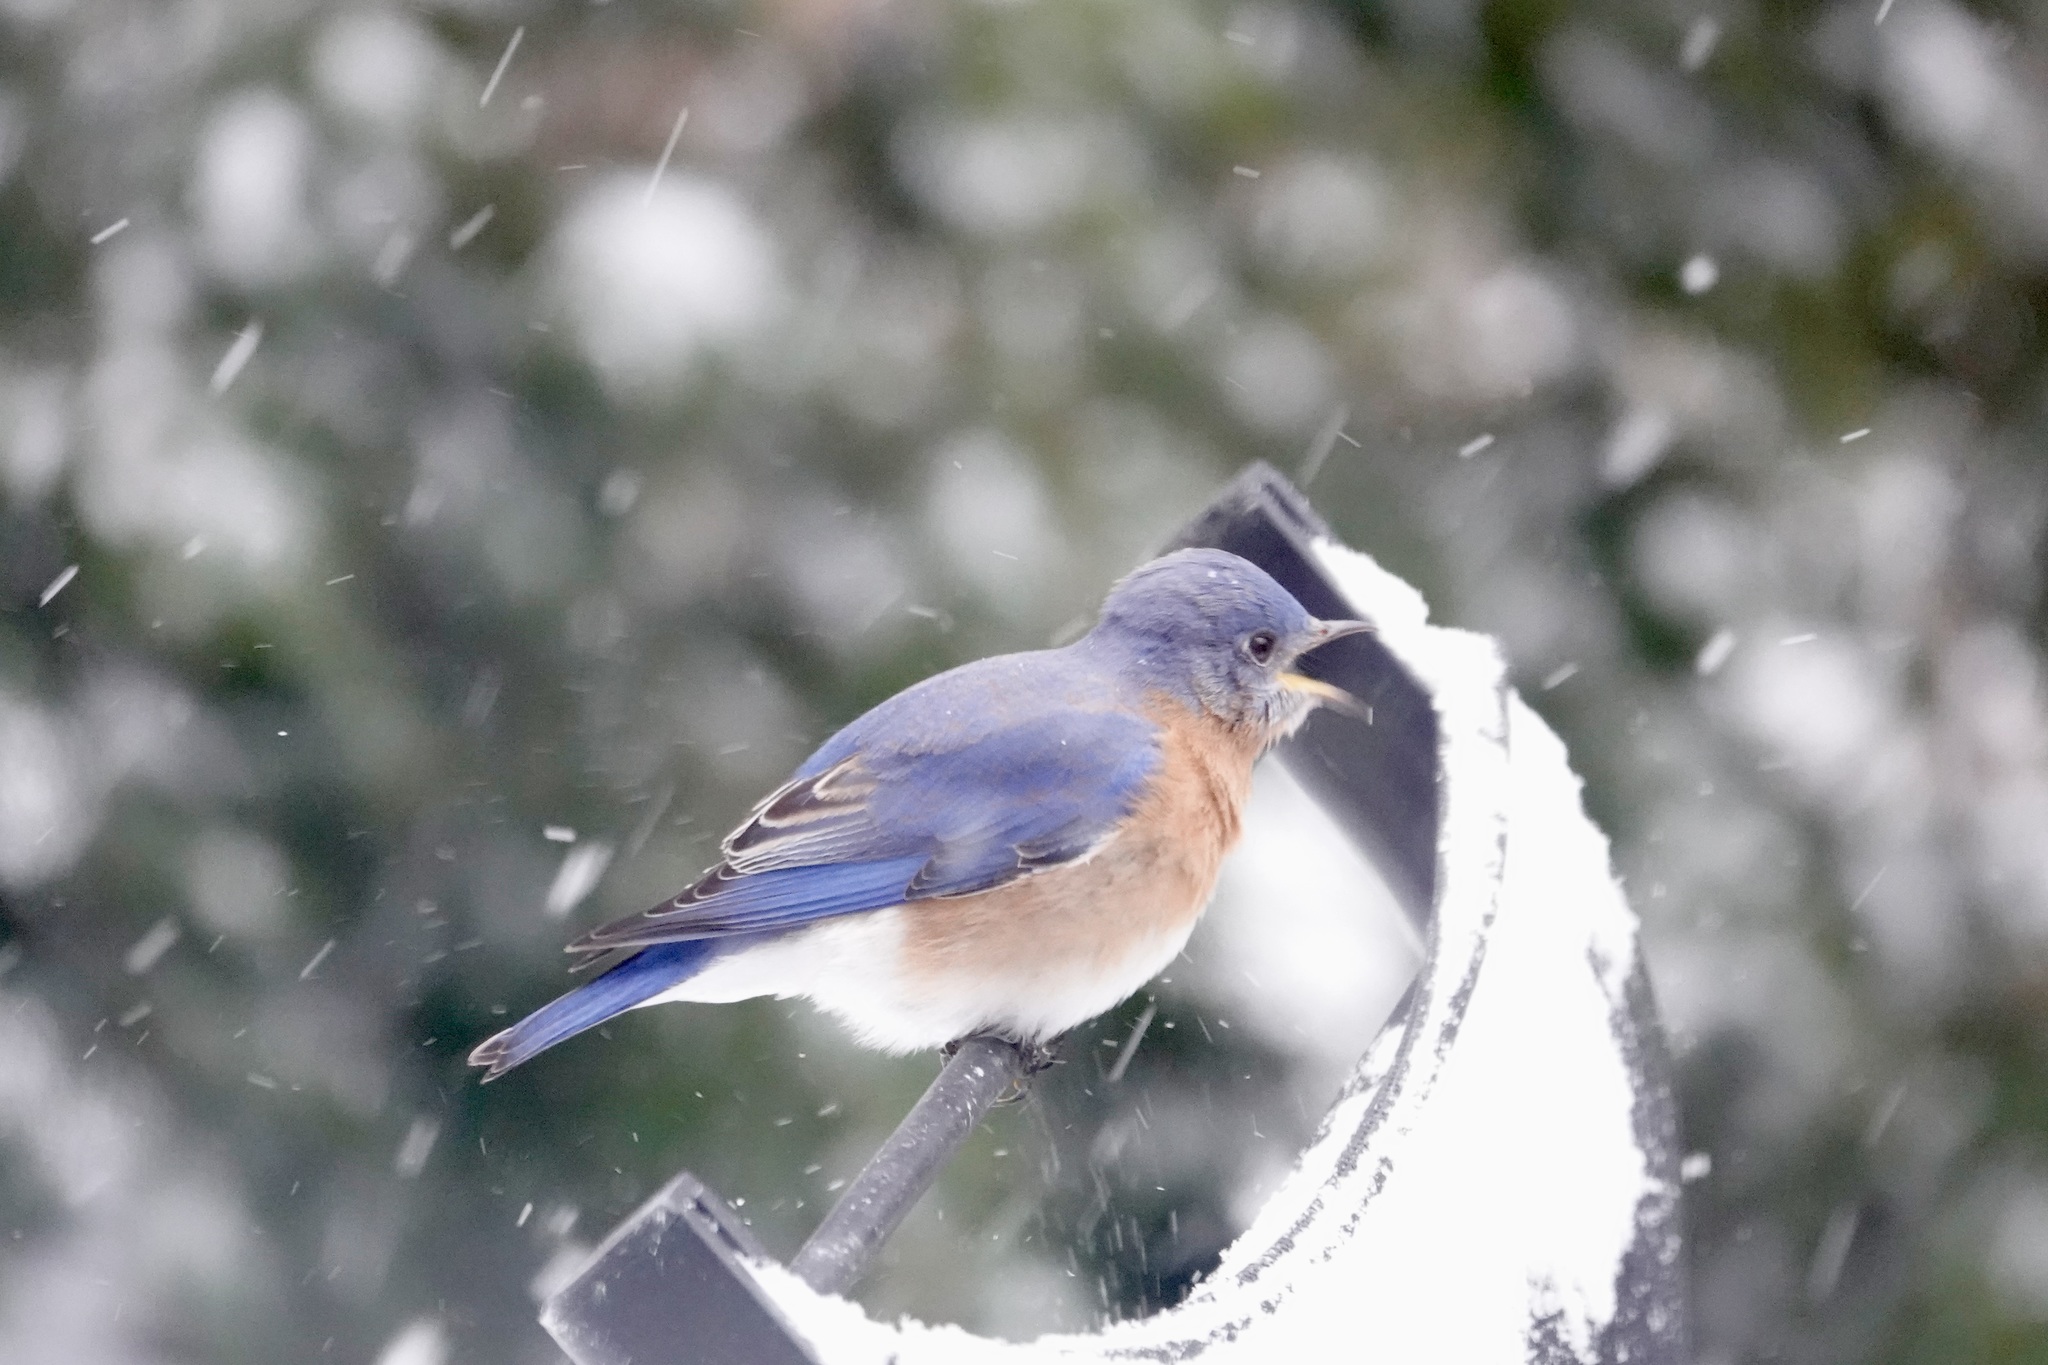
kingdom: Animalia
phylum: Chordata
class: Aves
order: Passeriformes
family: Turdidae
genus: Sialia
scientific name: Sialia sialis
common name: Eastern bluebird
